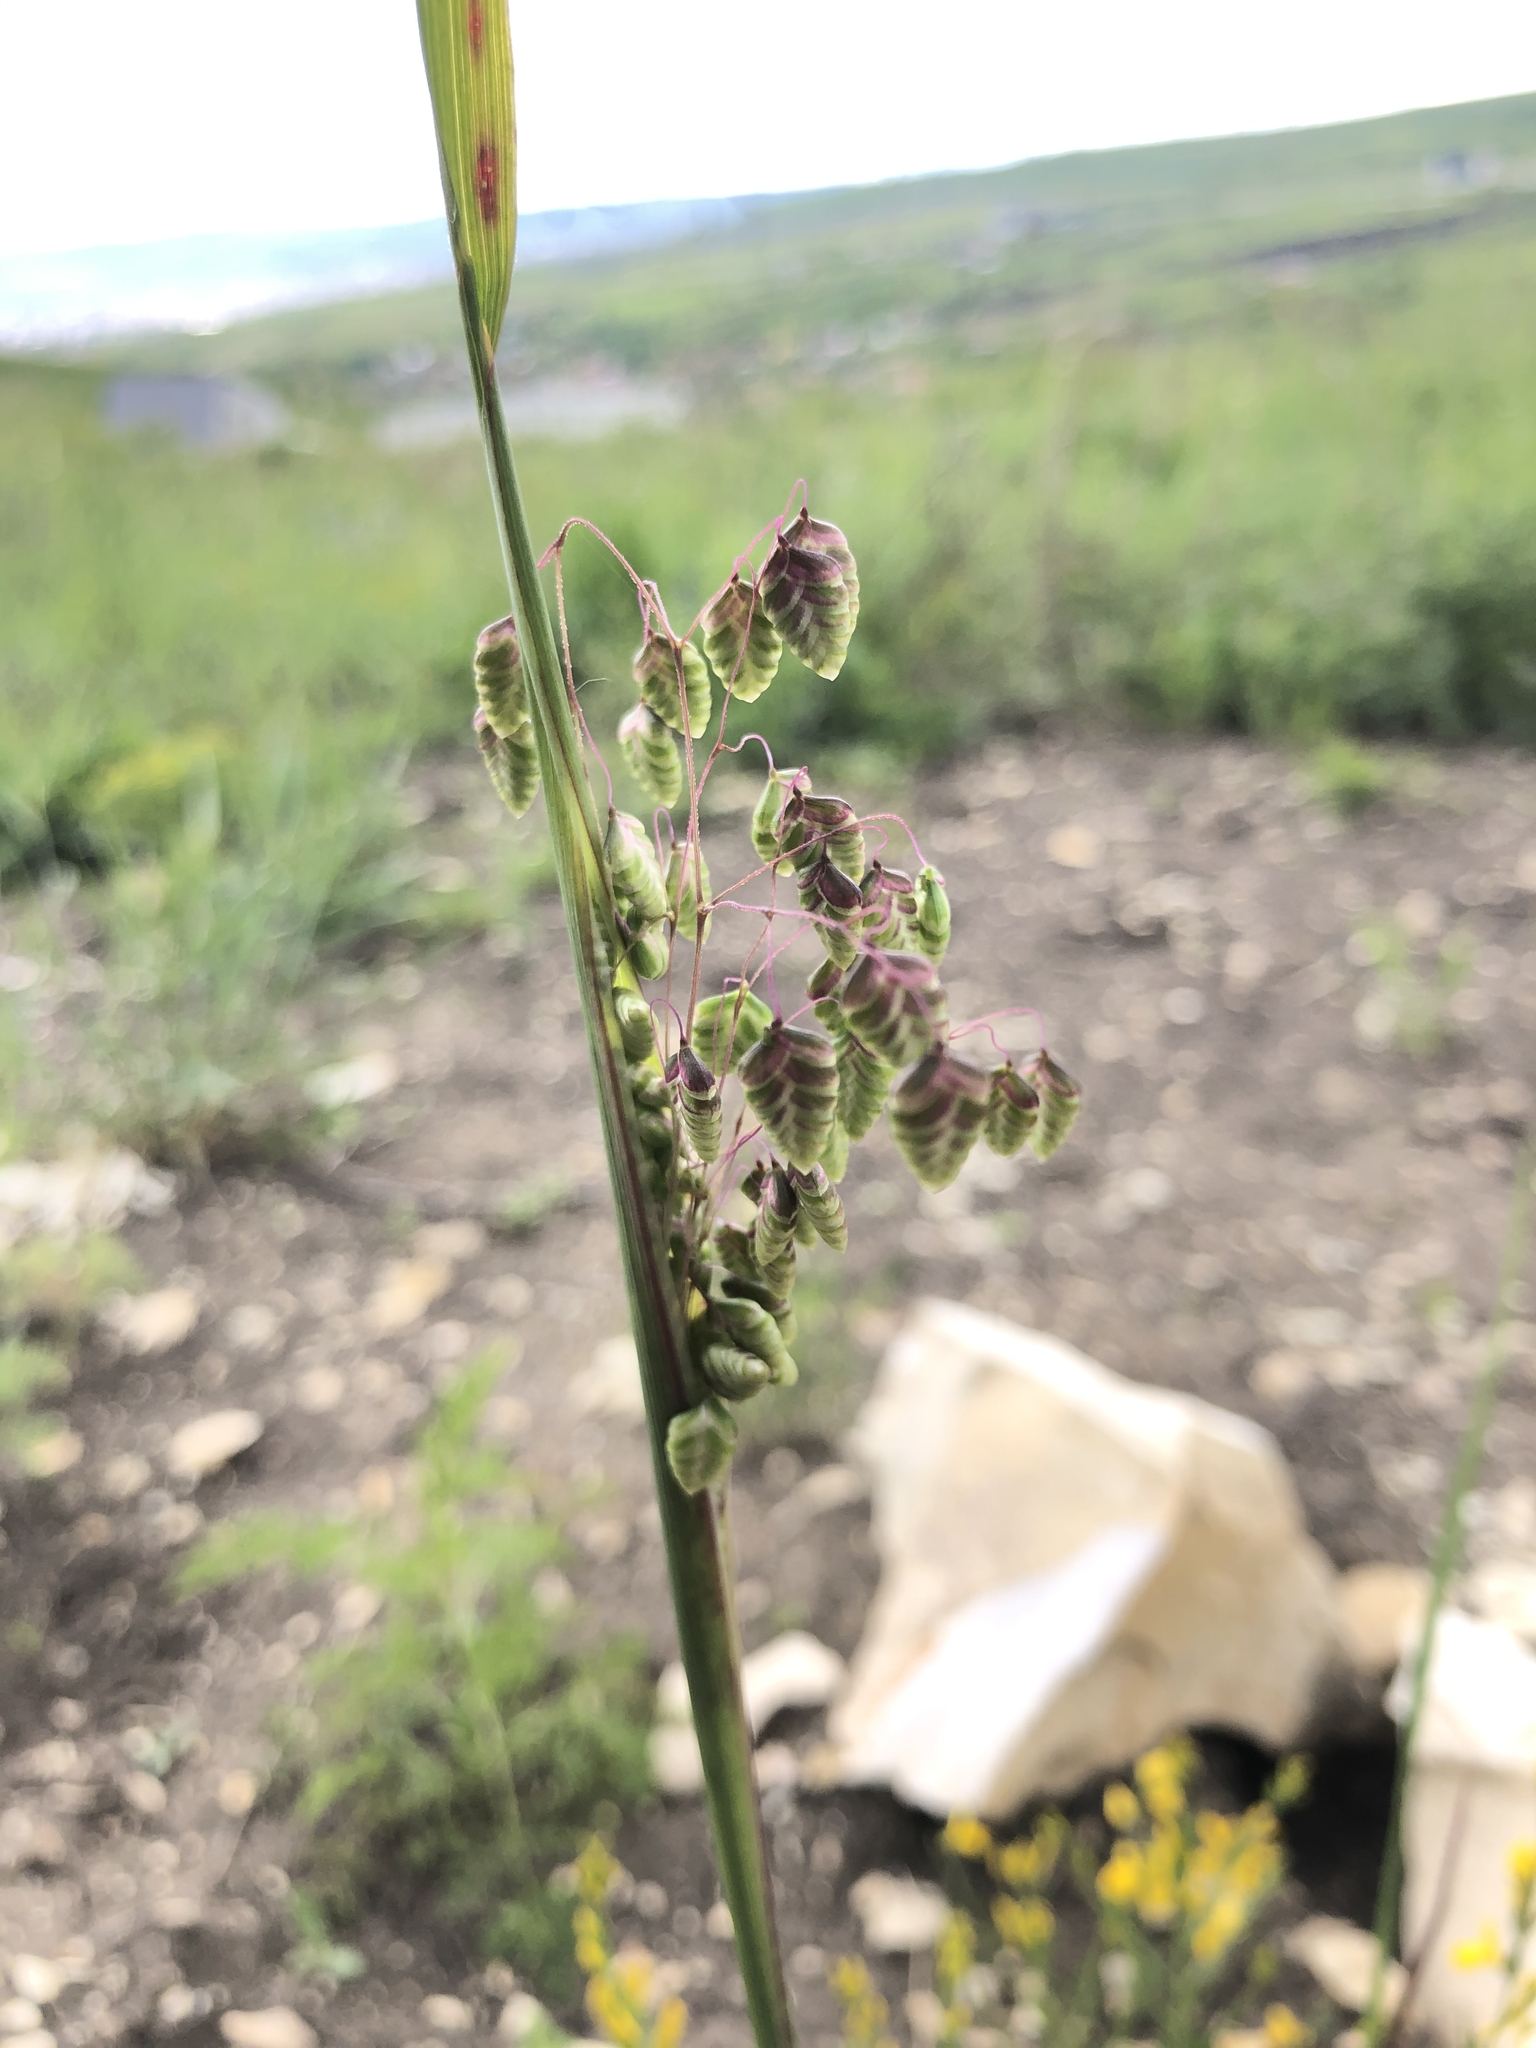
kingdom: Plantae
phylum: Tracheophyta
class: Liliopsida
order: Poales
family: Poaceae
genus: Briza
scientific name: Briza media
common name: Quaking grass
